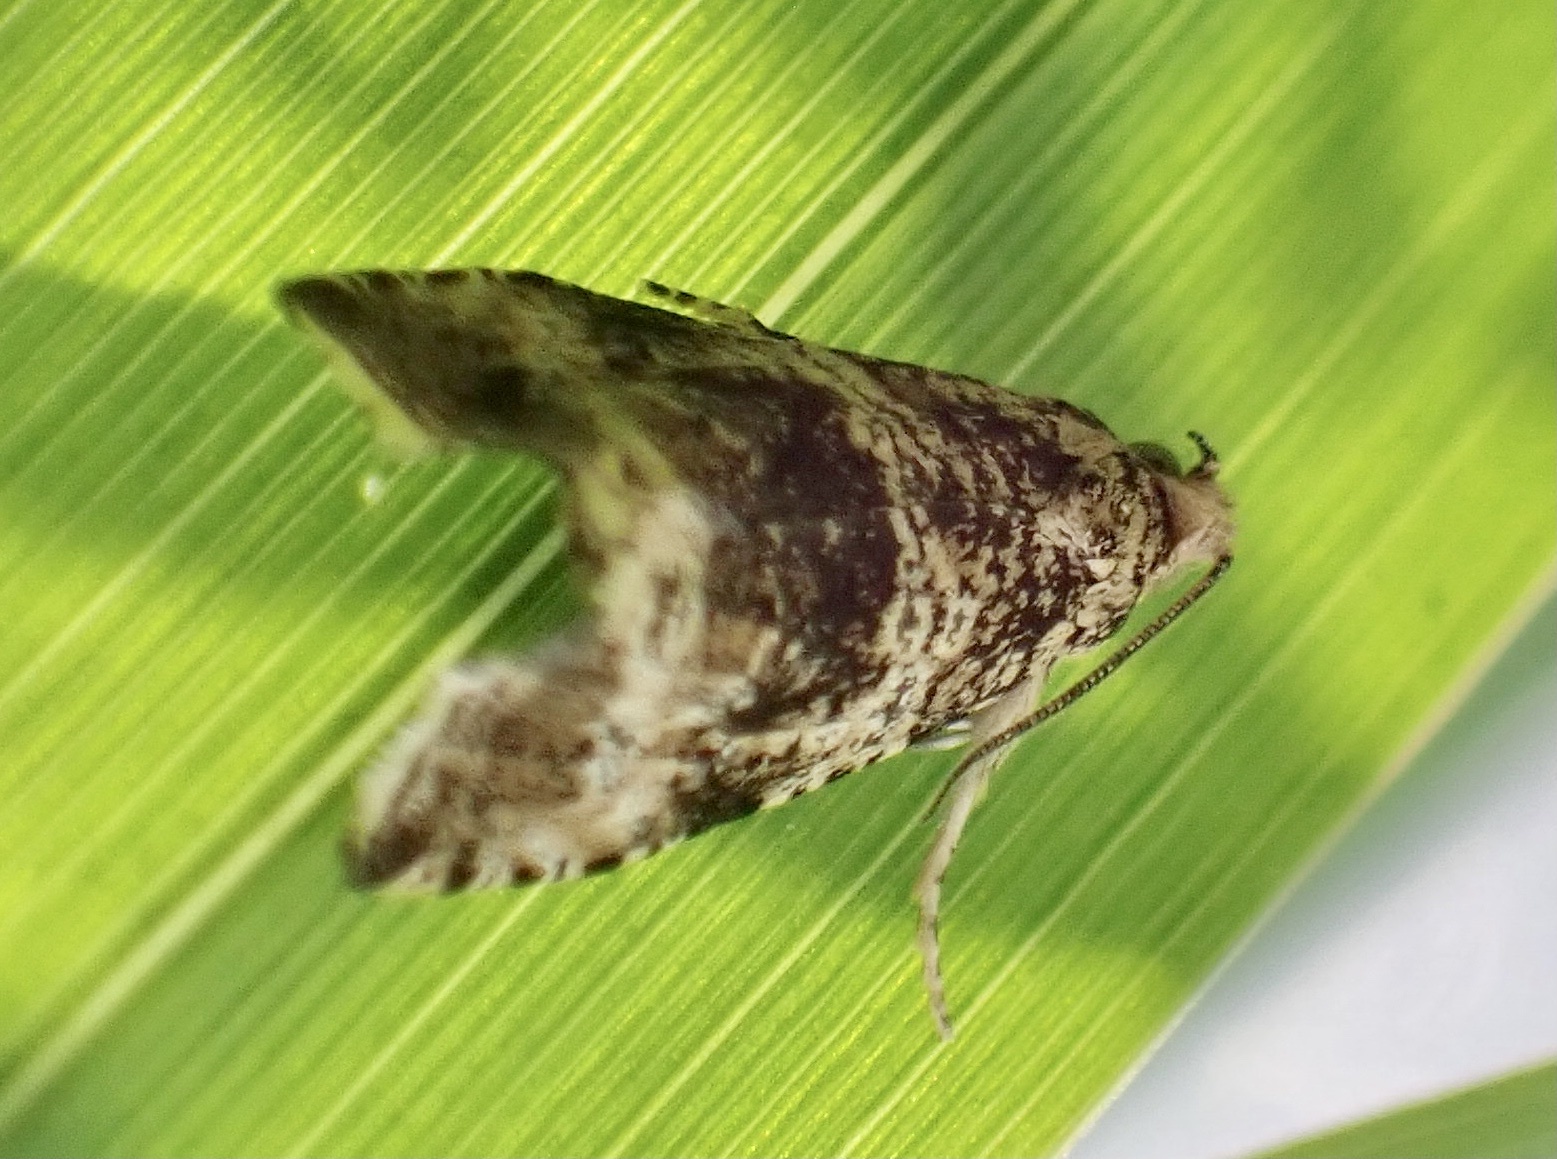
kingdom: Animalia
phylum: Arthropoda
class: Insecta
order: Lepidoptera
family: Tortricidae
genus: Syricoris
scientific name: Syricoris lacunana
